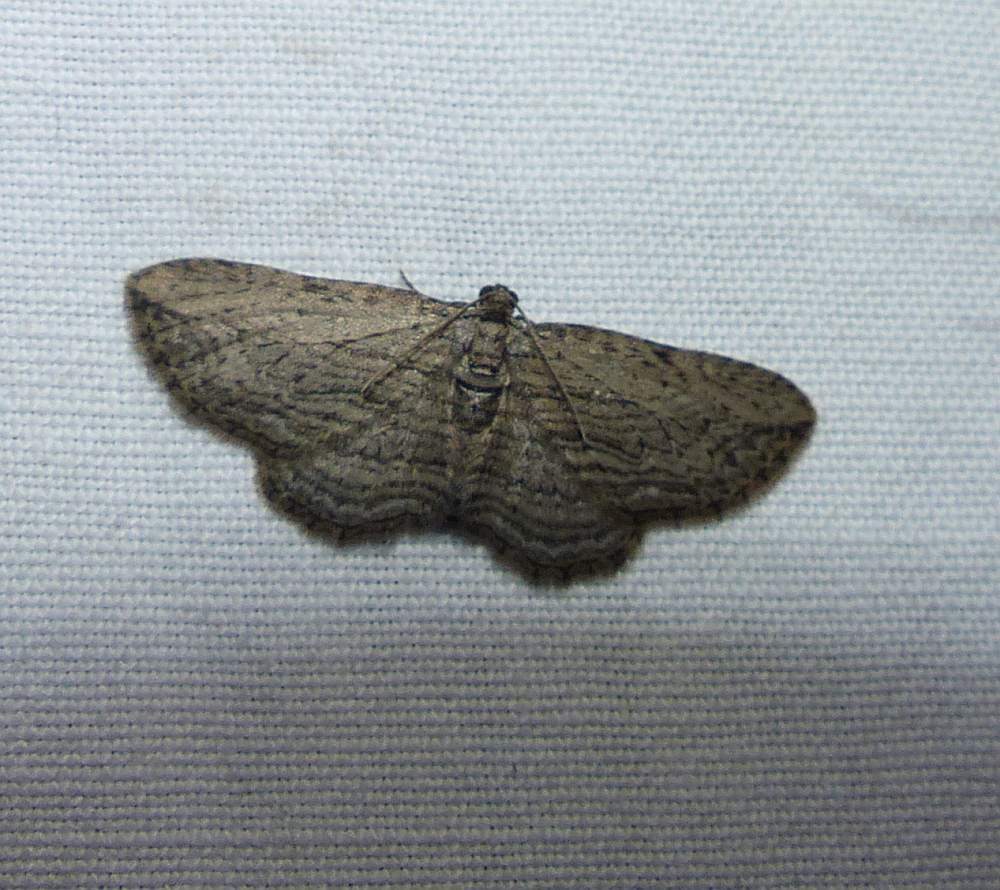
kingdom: Animalia
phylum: Arthropoda
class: Insecta
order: Lepidoptera
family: Geometridae
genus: Horisme
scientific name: Horisme intestinata
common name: Brown bark carpet
